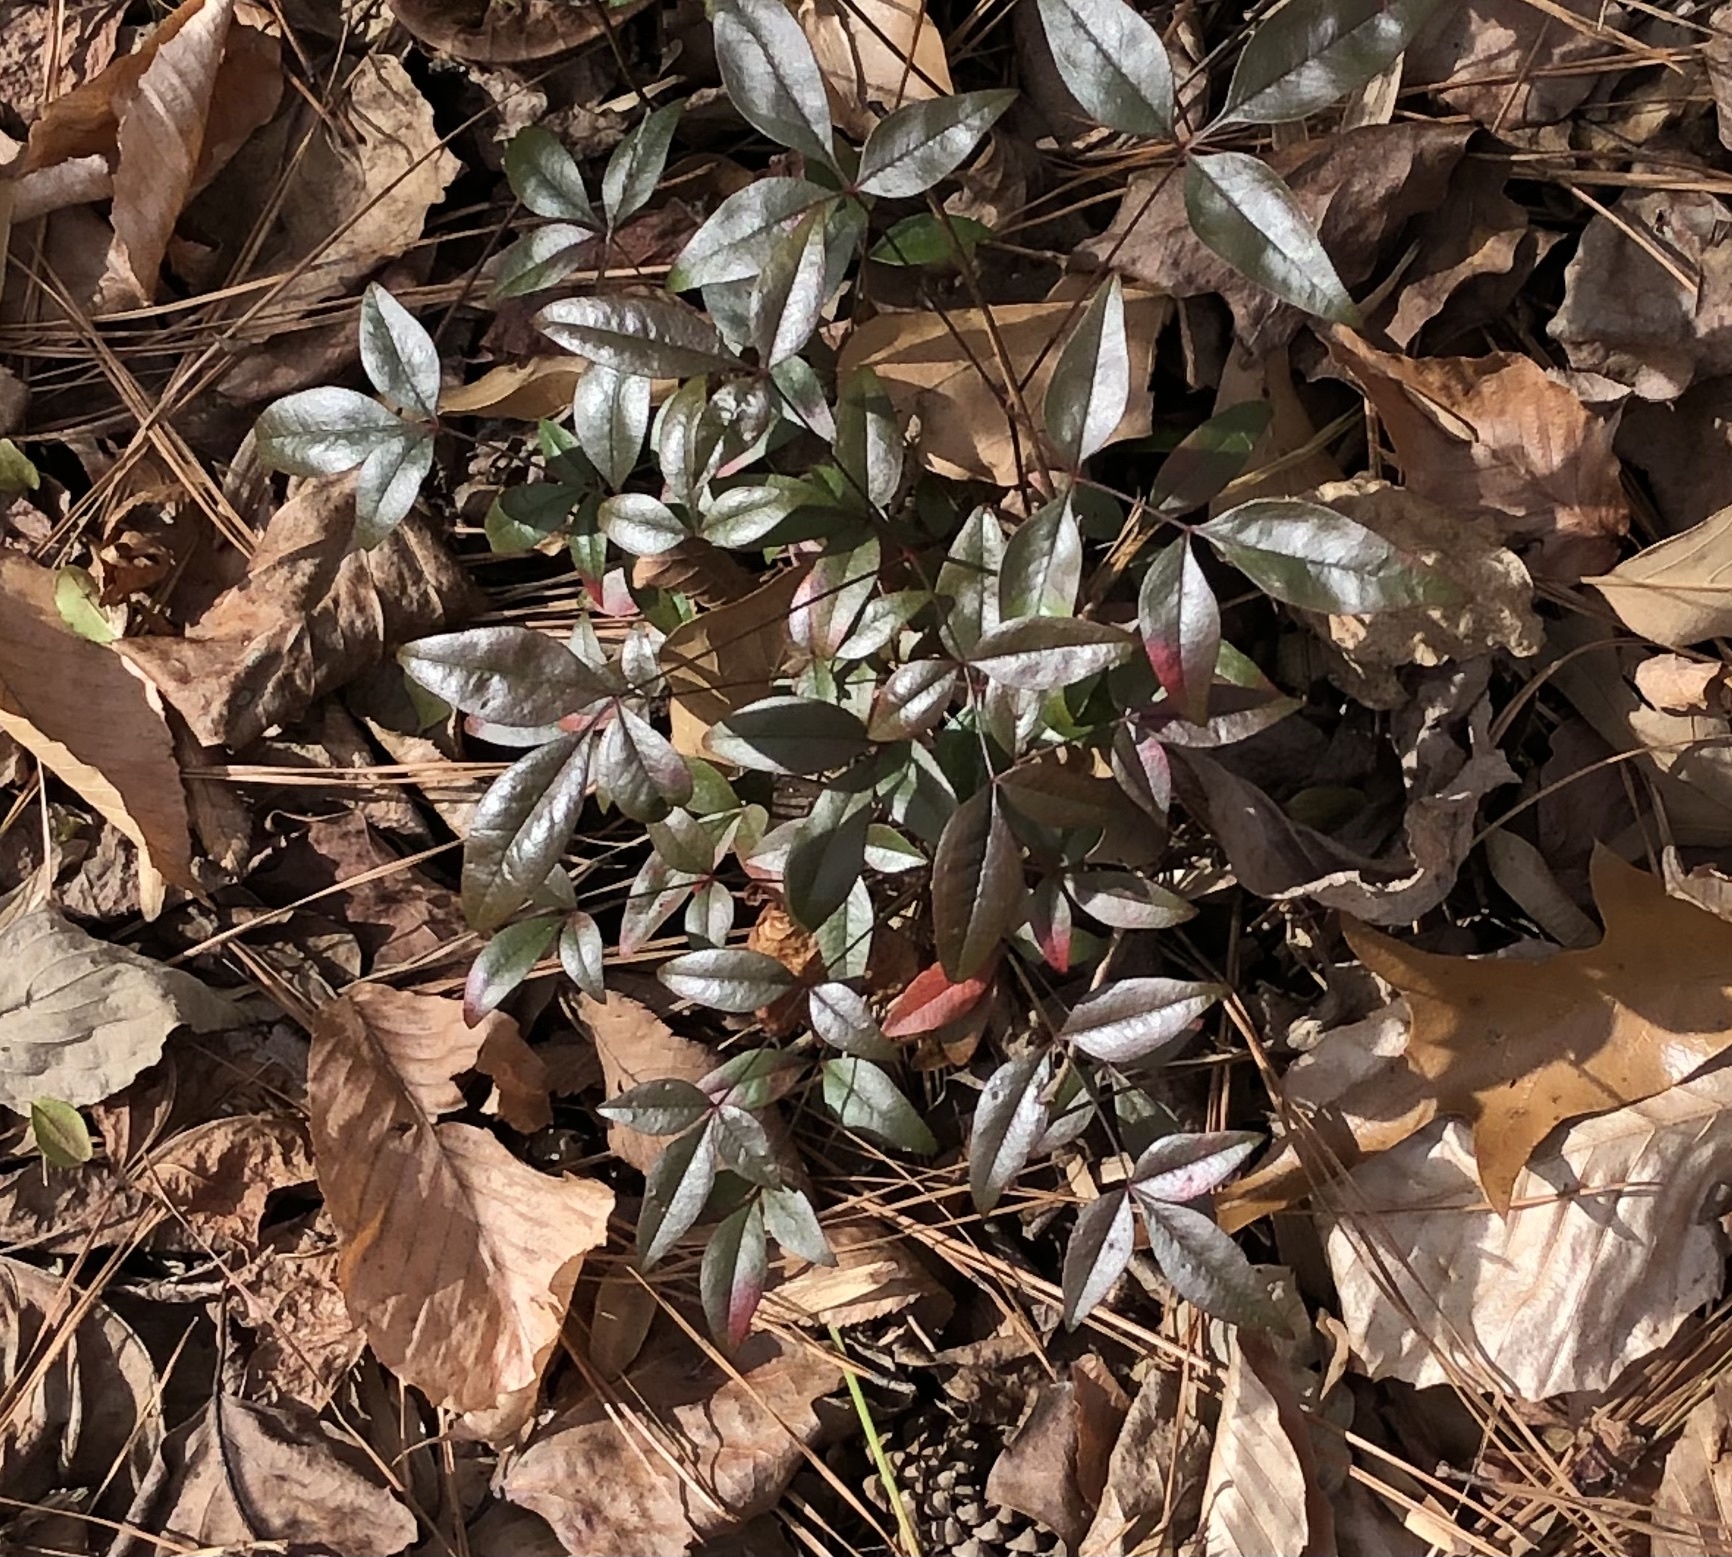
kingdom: Plantae
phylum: Tracheophyta
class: Magnoliopsida
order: Ranunculales
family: Berberidaceae
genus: Nandina
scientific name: Nandina domestica
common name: Sacred bamboo
